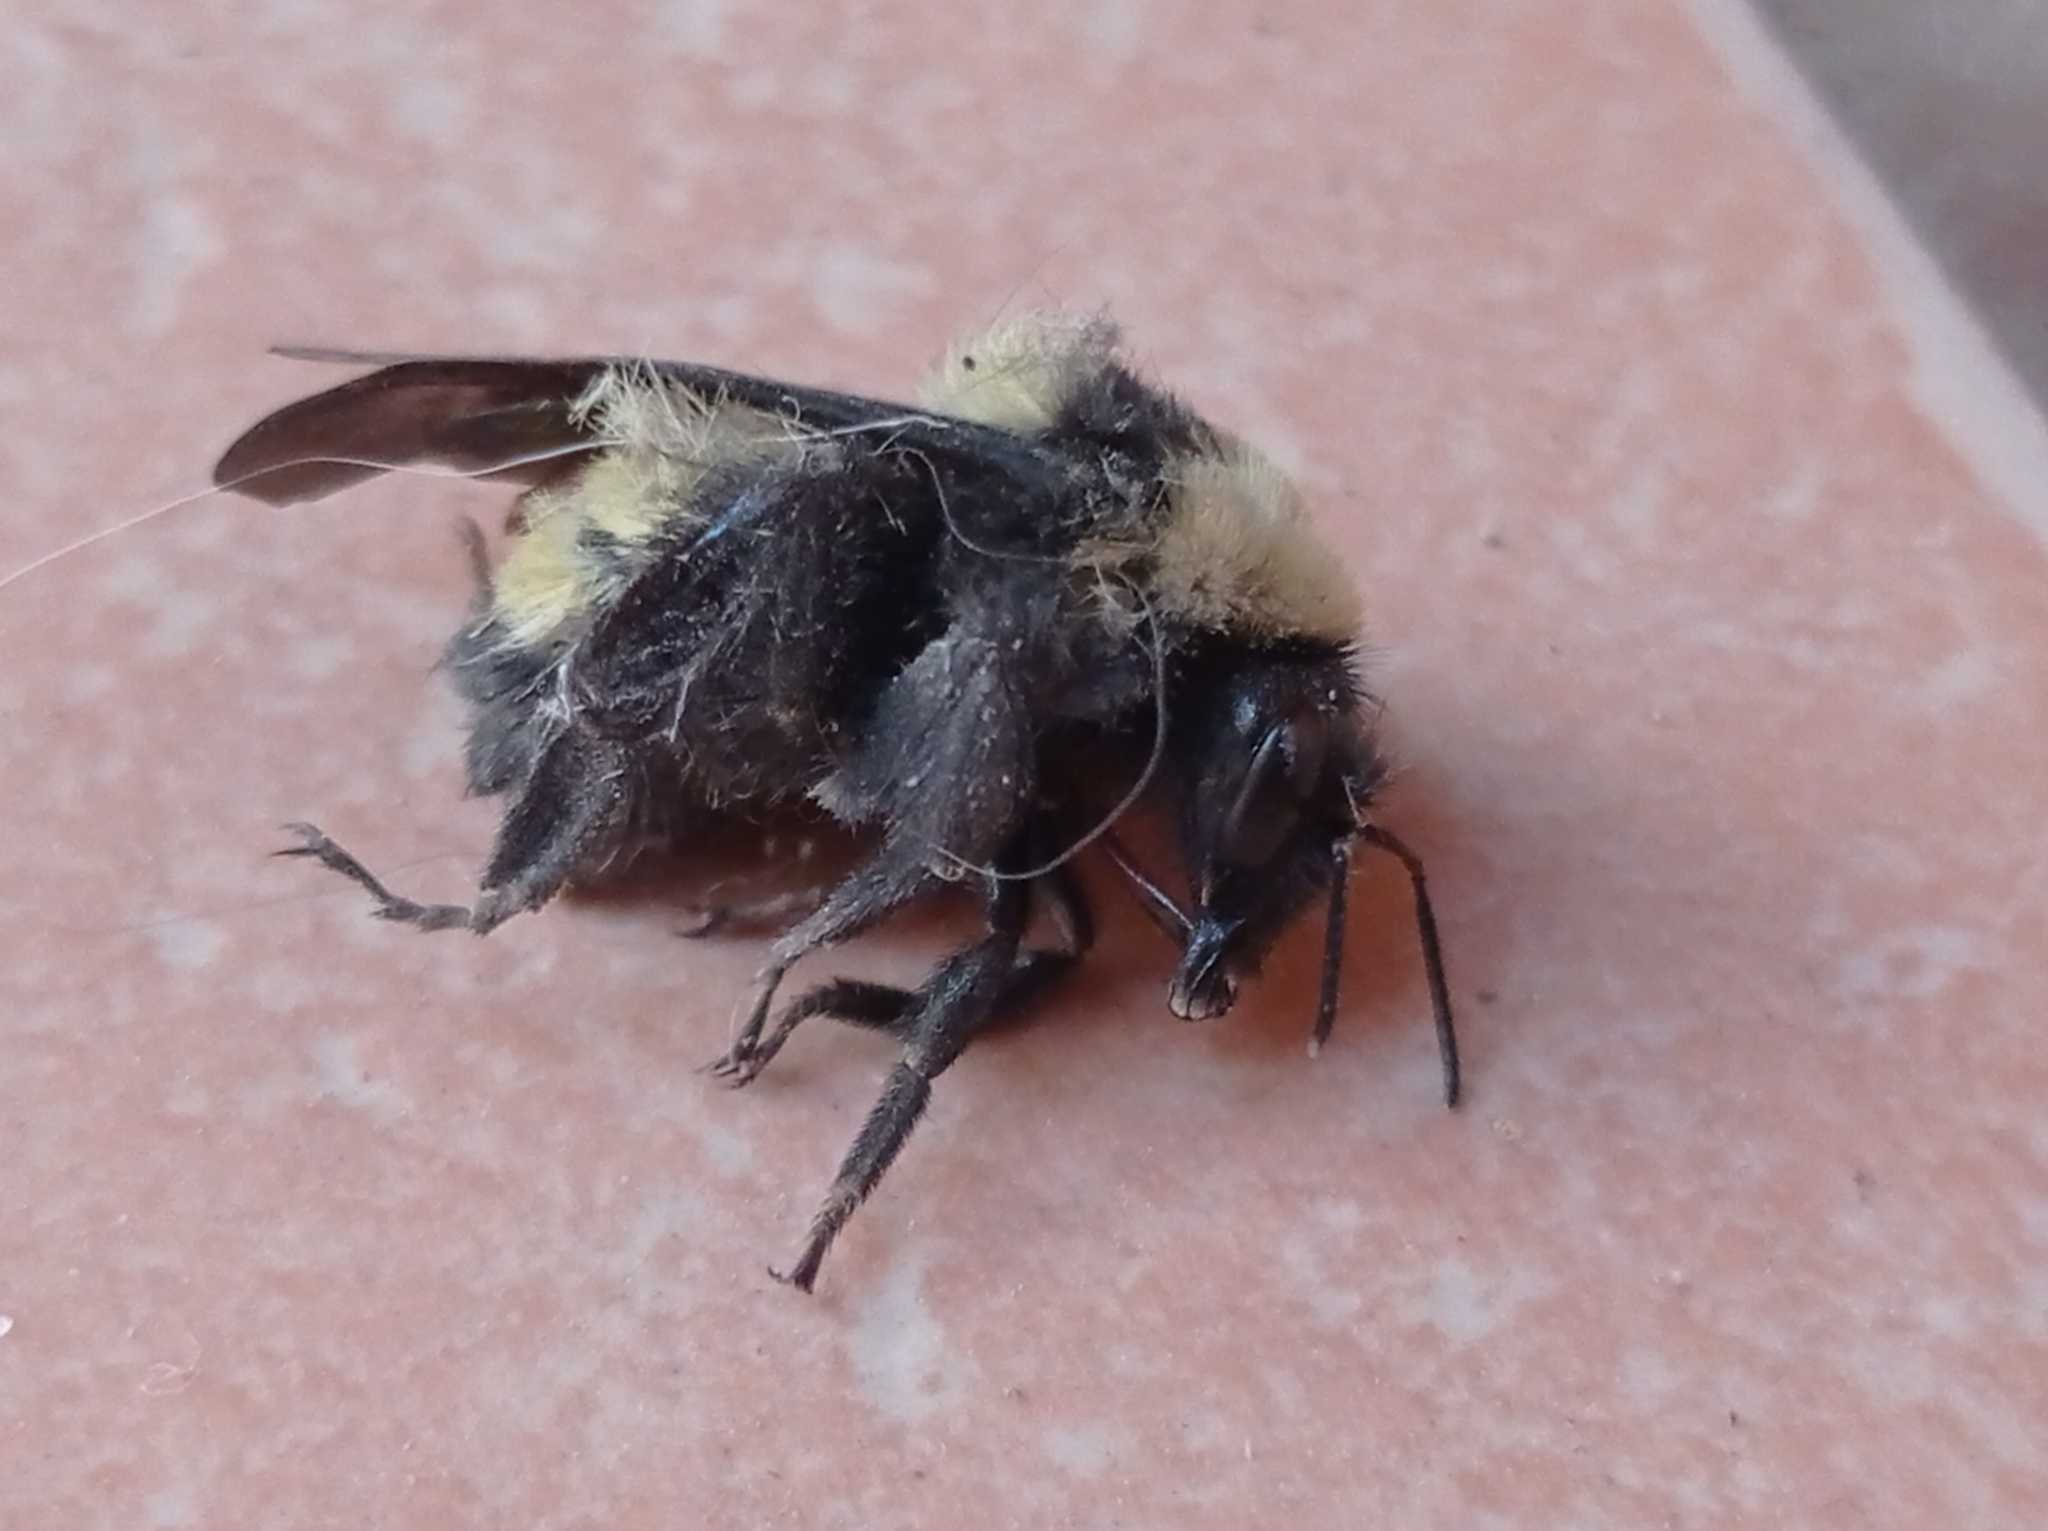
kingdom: Animalia
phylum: Arthropoda
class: Insecta
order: Hymenoptera
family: Apidae
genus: Bombus
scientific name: Bombus sonorus
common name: Sonoran bumble bee
